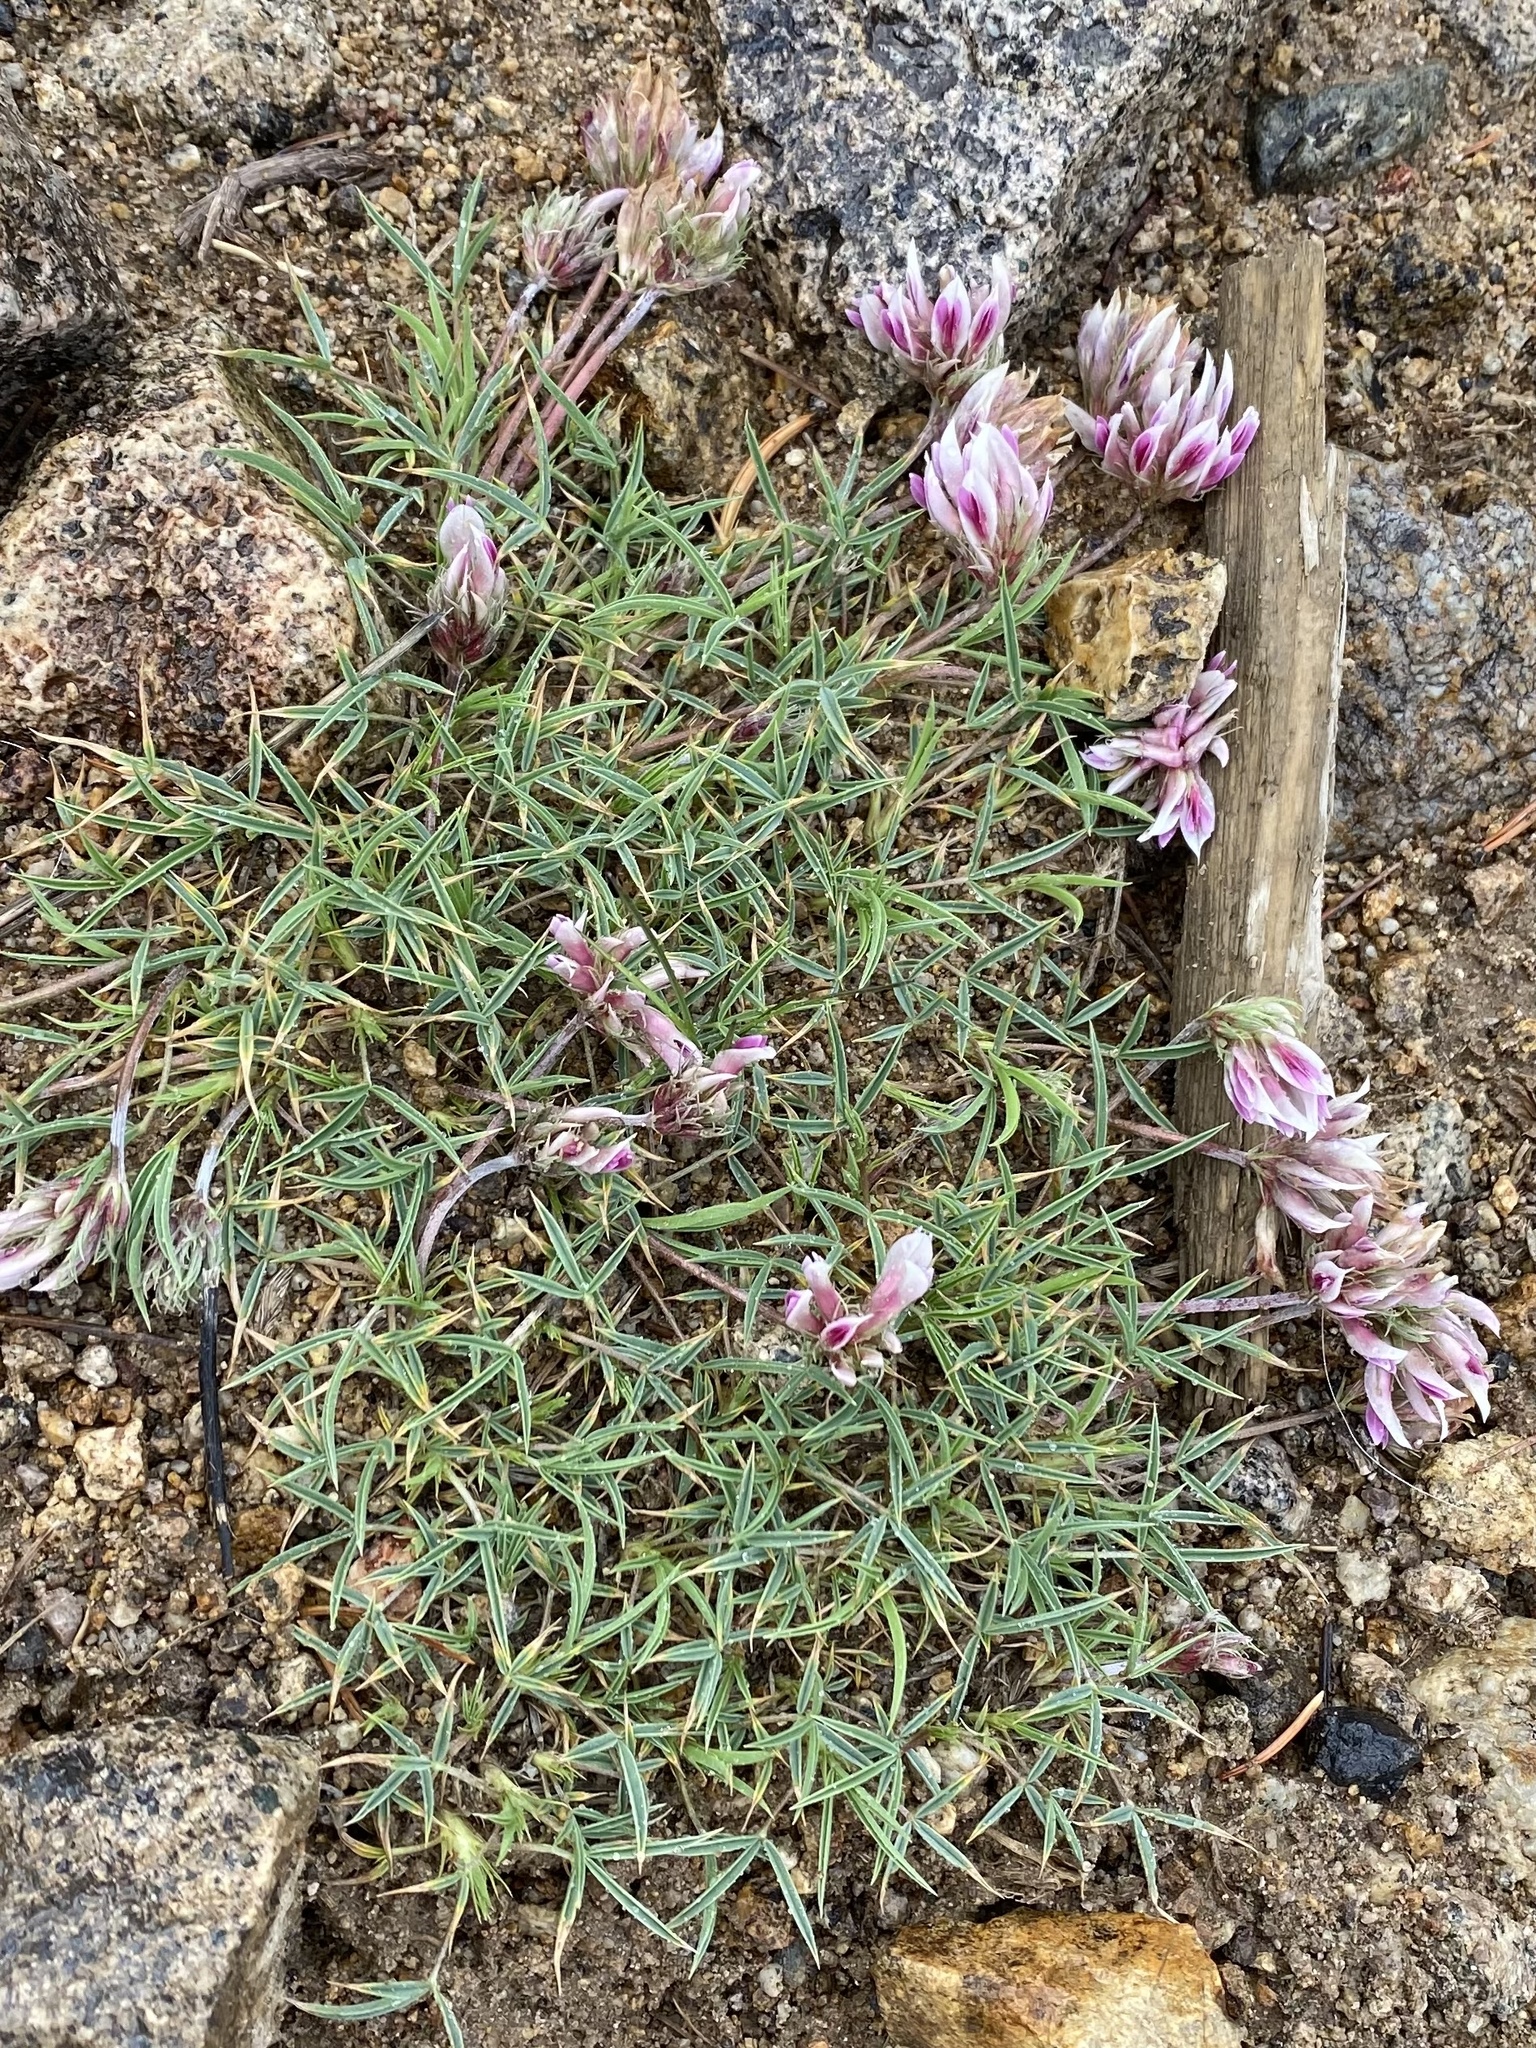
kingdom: Plantae
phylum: Tracheophyta
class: Magnoliopsida
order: Fabales
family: Fabaceae
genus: Trifolium
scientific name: Trifolium dasyphyllum
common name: Whip-root clover
